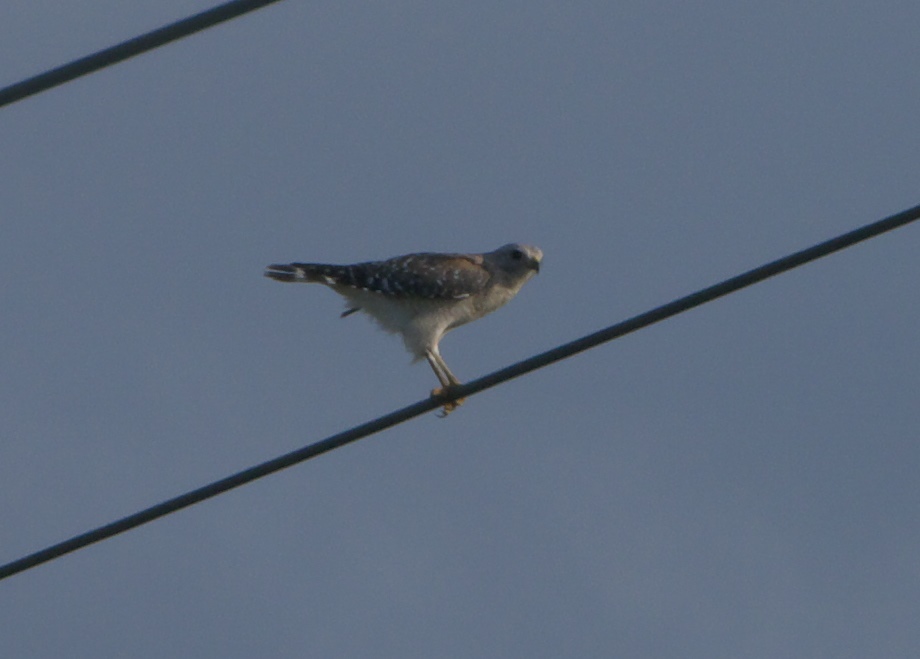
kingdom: Animalia
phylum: Chordata
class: Aves
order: Accipitriformes
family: Accipitridae
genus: Buteo
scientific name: Buteo lineatus
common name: Red-shouldered hawk
